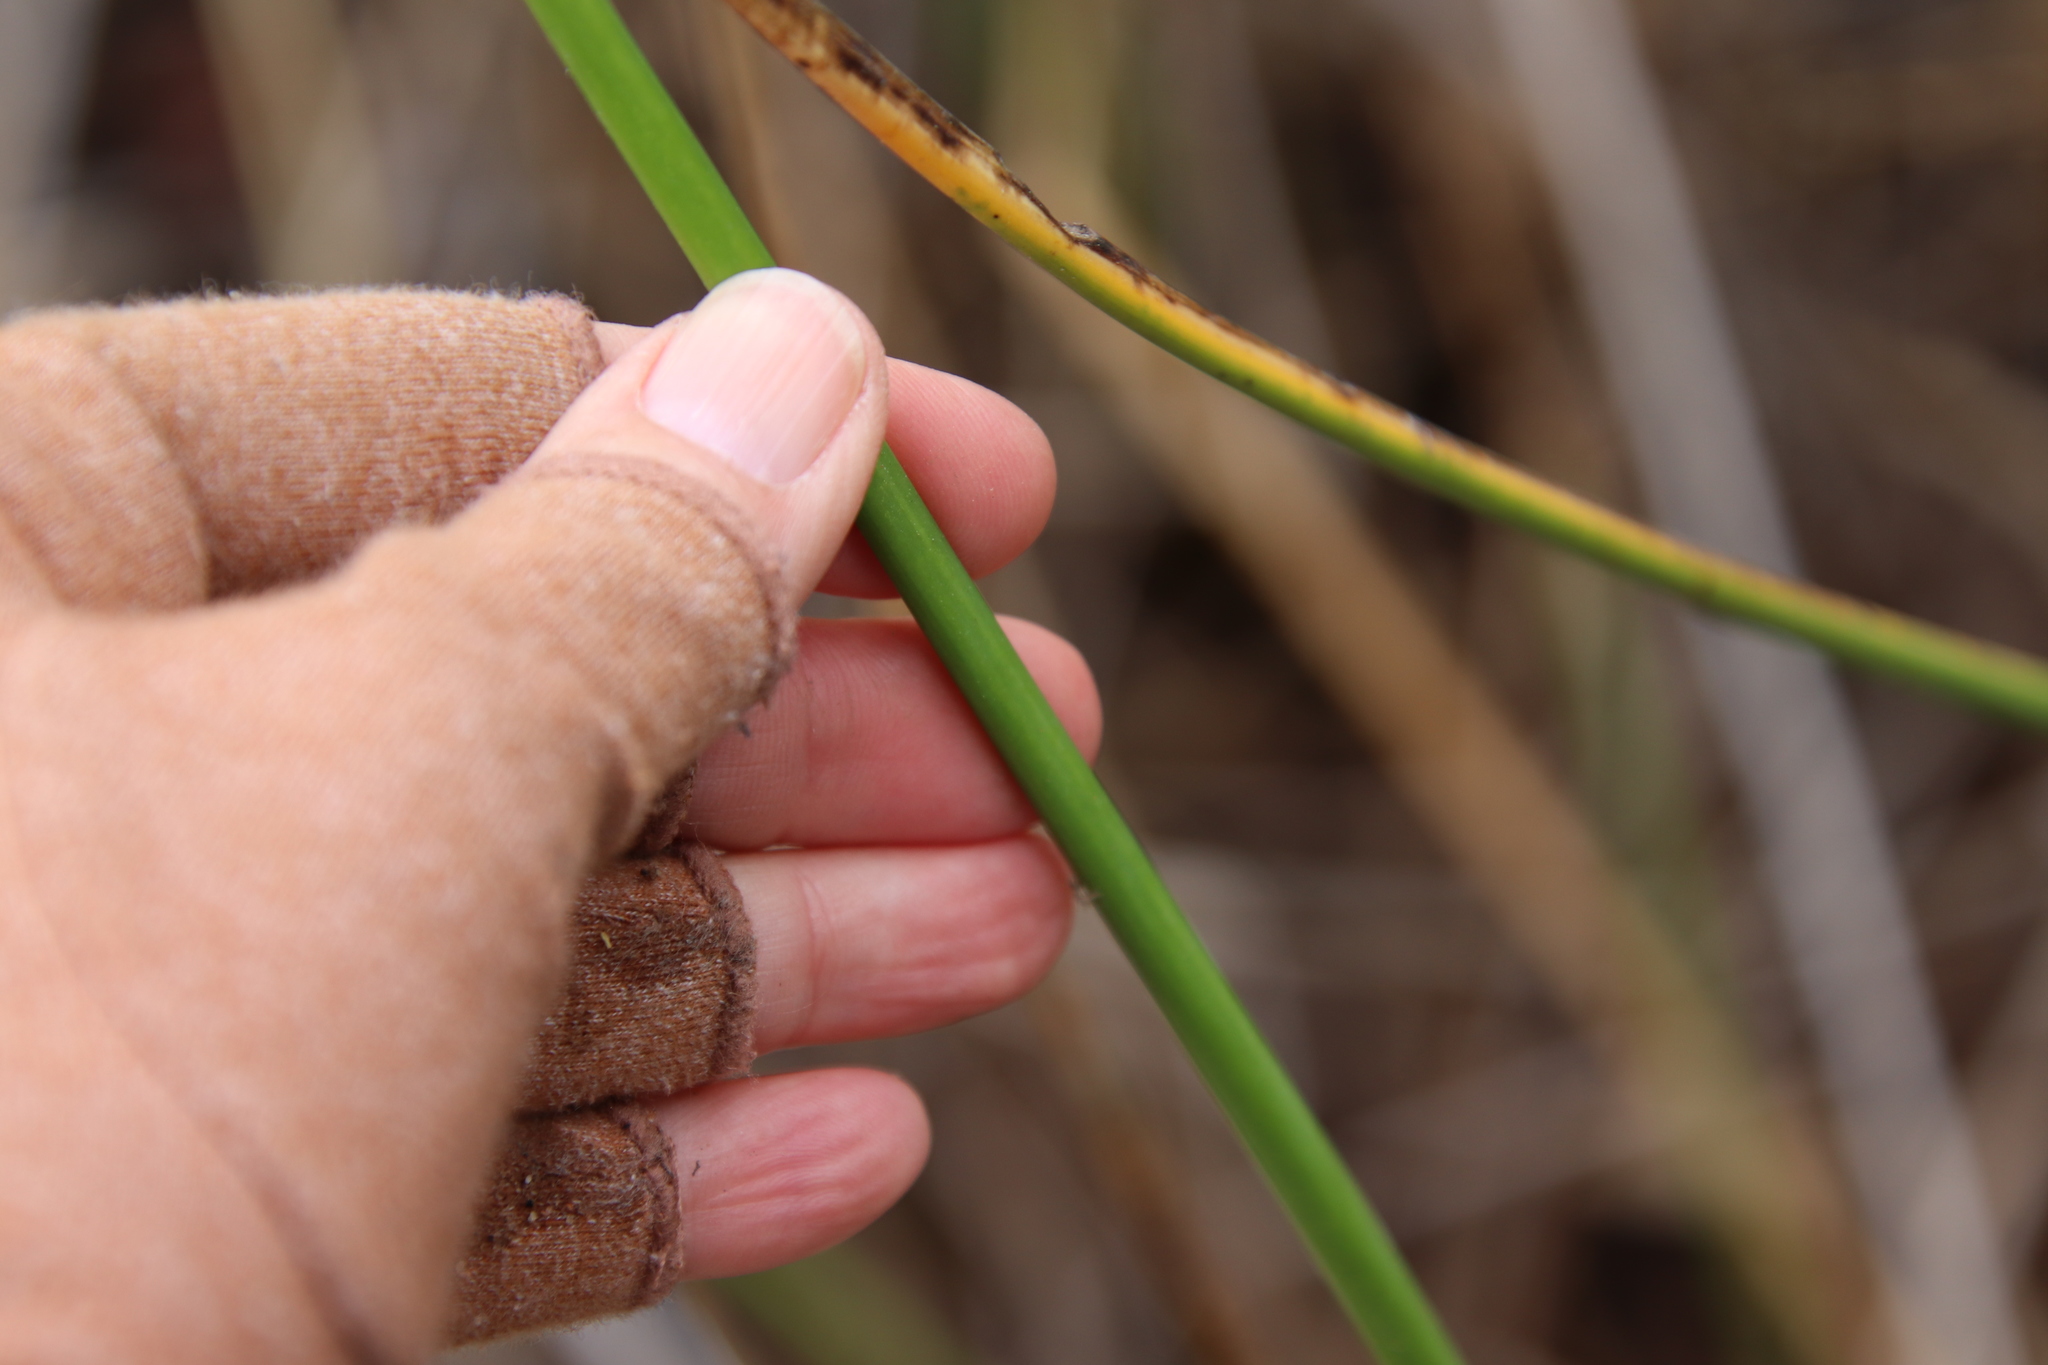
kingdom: Plantae
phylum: Tracheophyta
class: Liliopsida
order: Poales
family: Cyperaceae
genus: Schoenoplectus
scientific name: Schoenoplectus californicus
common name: California bulrush
